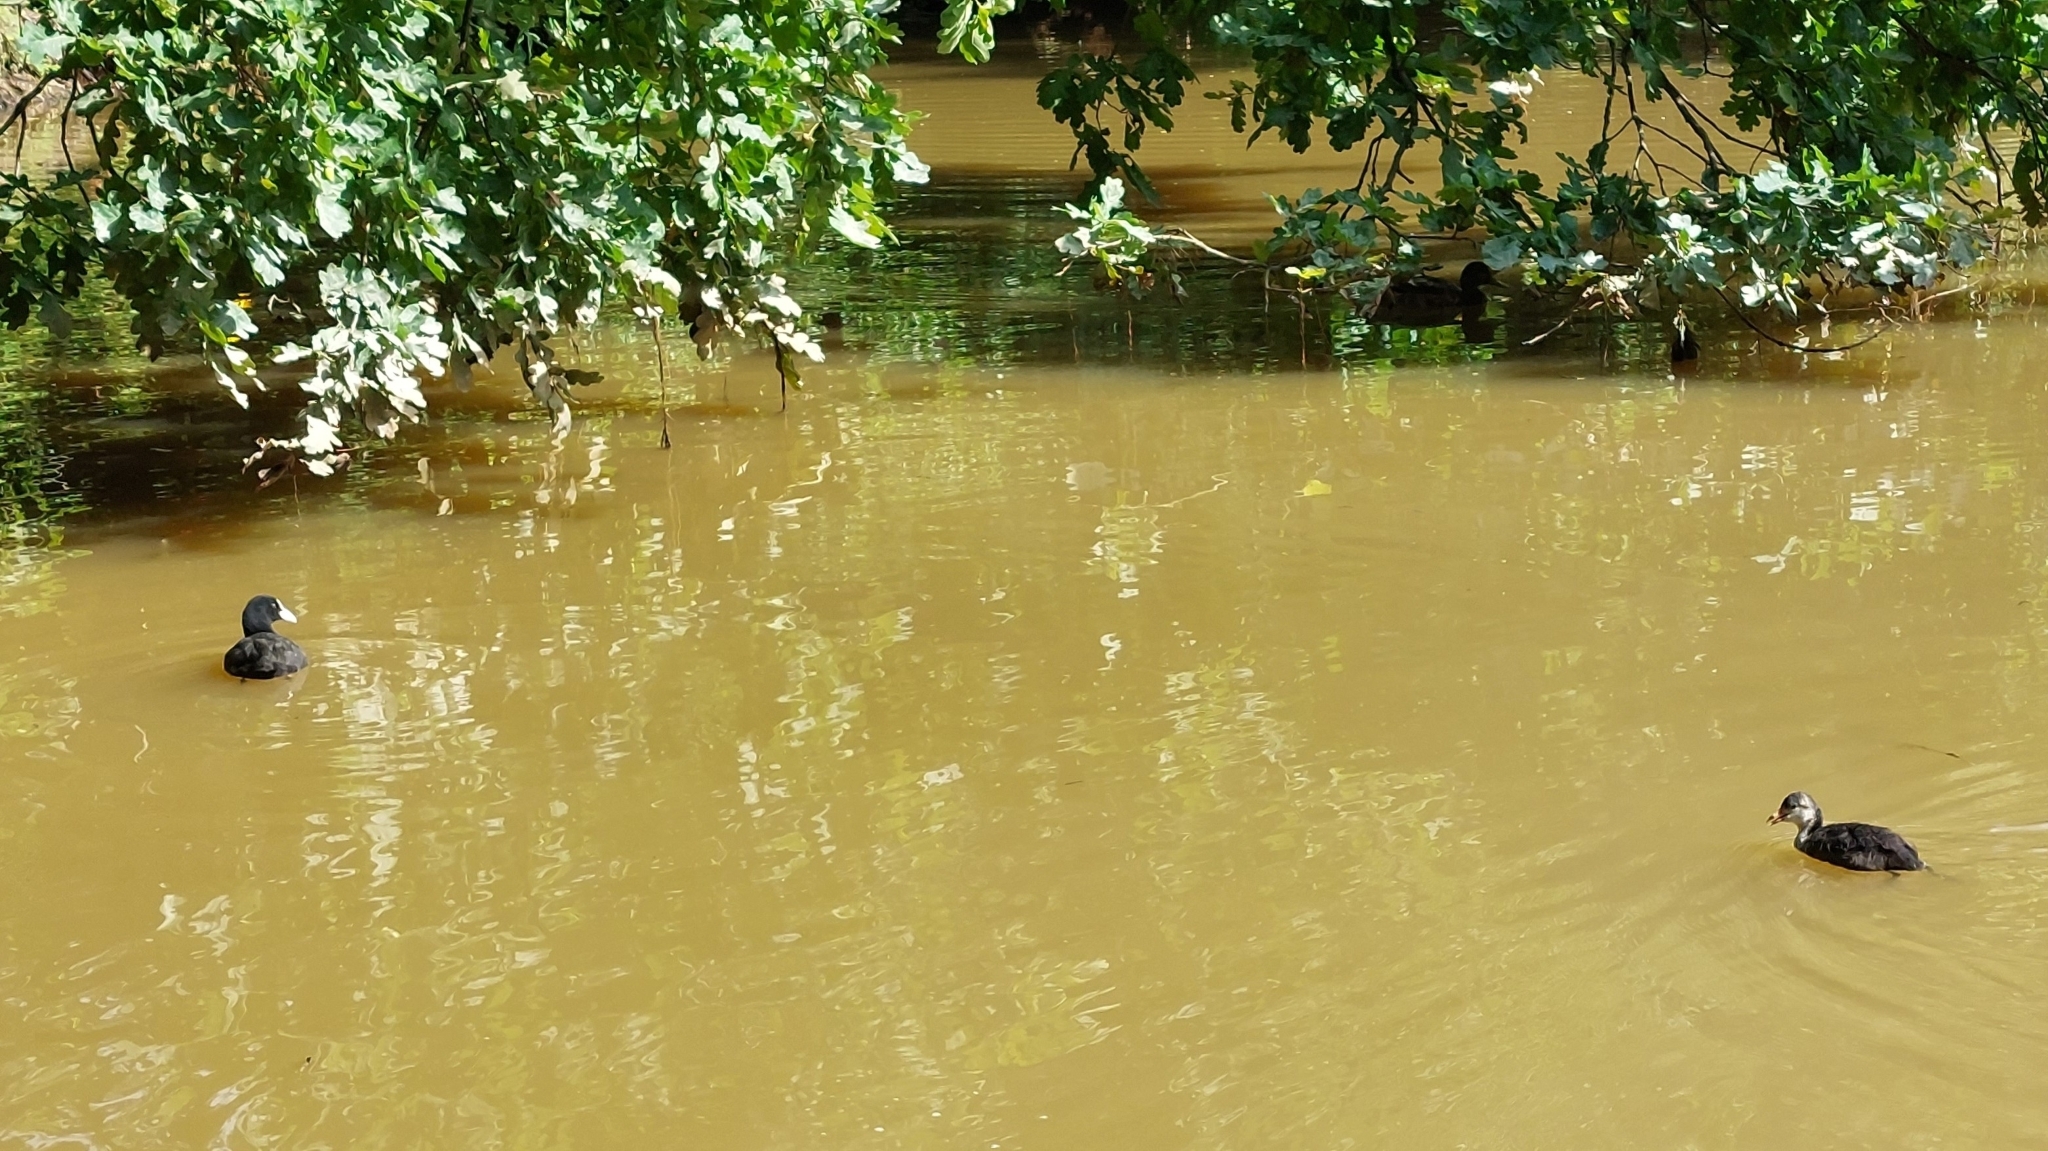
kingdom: Animalia
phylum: Chordata
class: Aves
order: Gruiformes
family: Rallidae
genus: Fulica
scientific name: Fulica atra
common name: Eurasian coot
